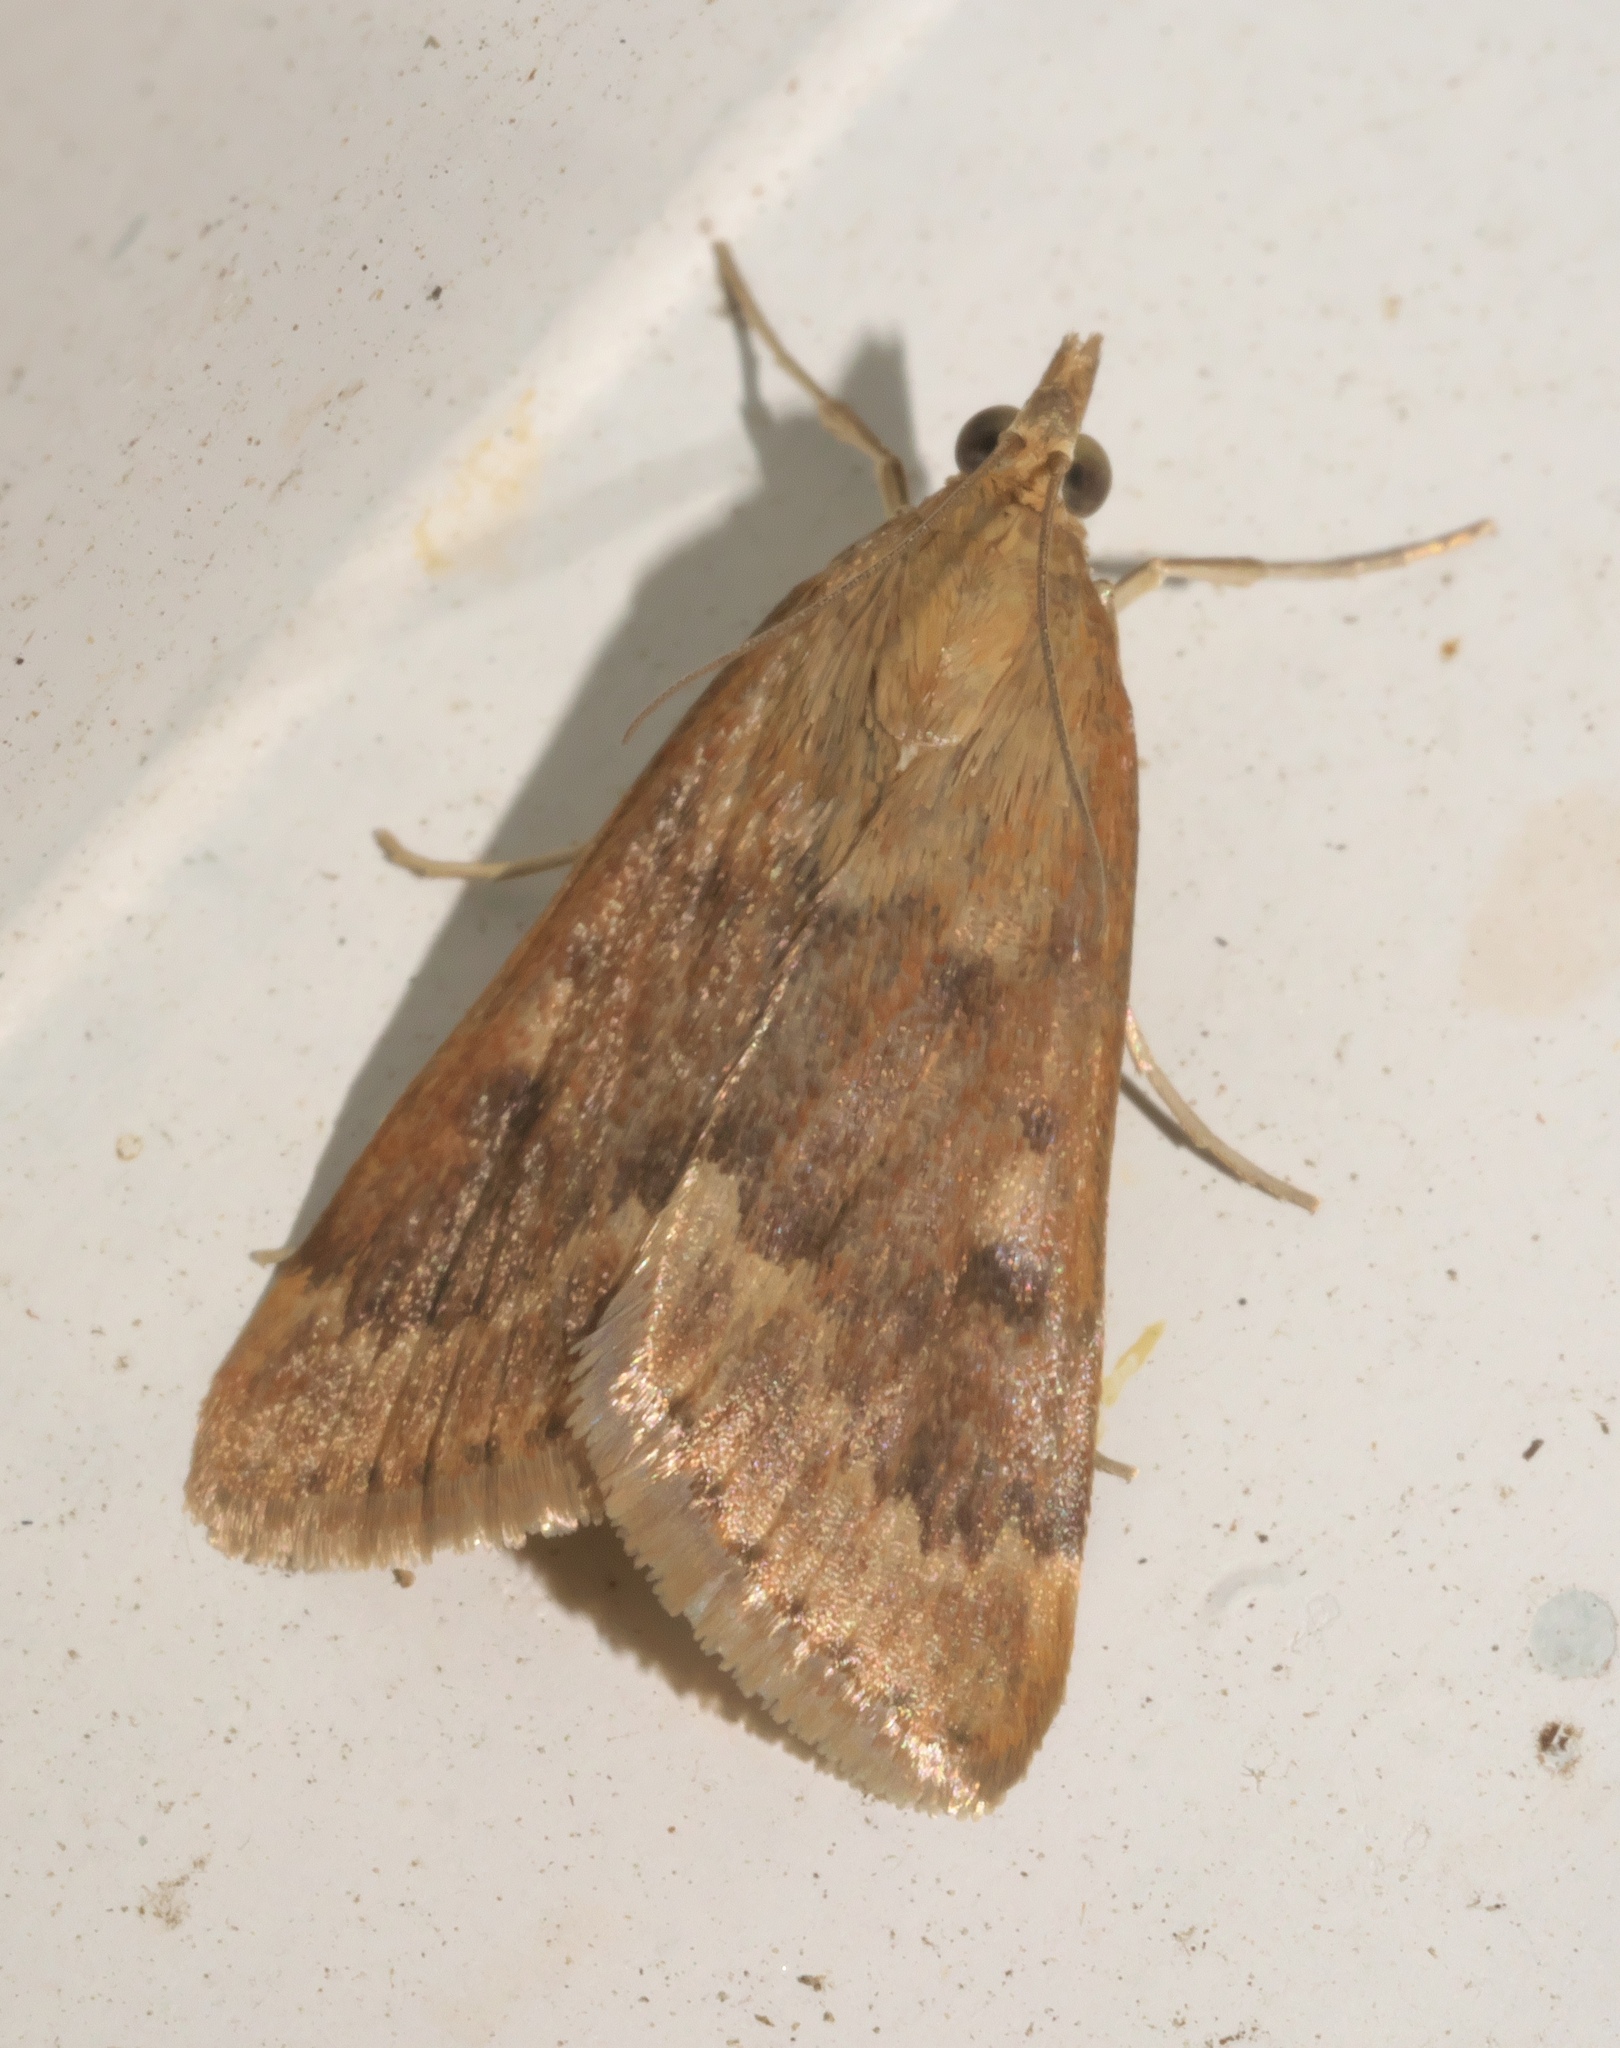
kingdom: Animalia
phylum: Arthropoda
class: Insecta
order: Lepidoptera
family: Crambidae
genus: Achyra
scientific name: Achyra rantalis
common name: Garden webworm
